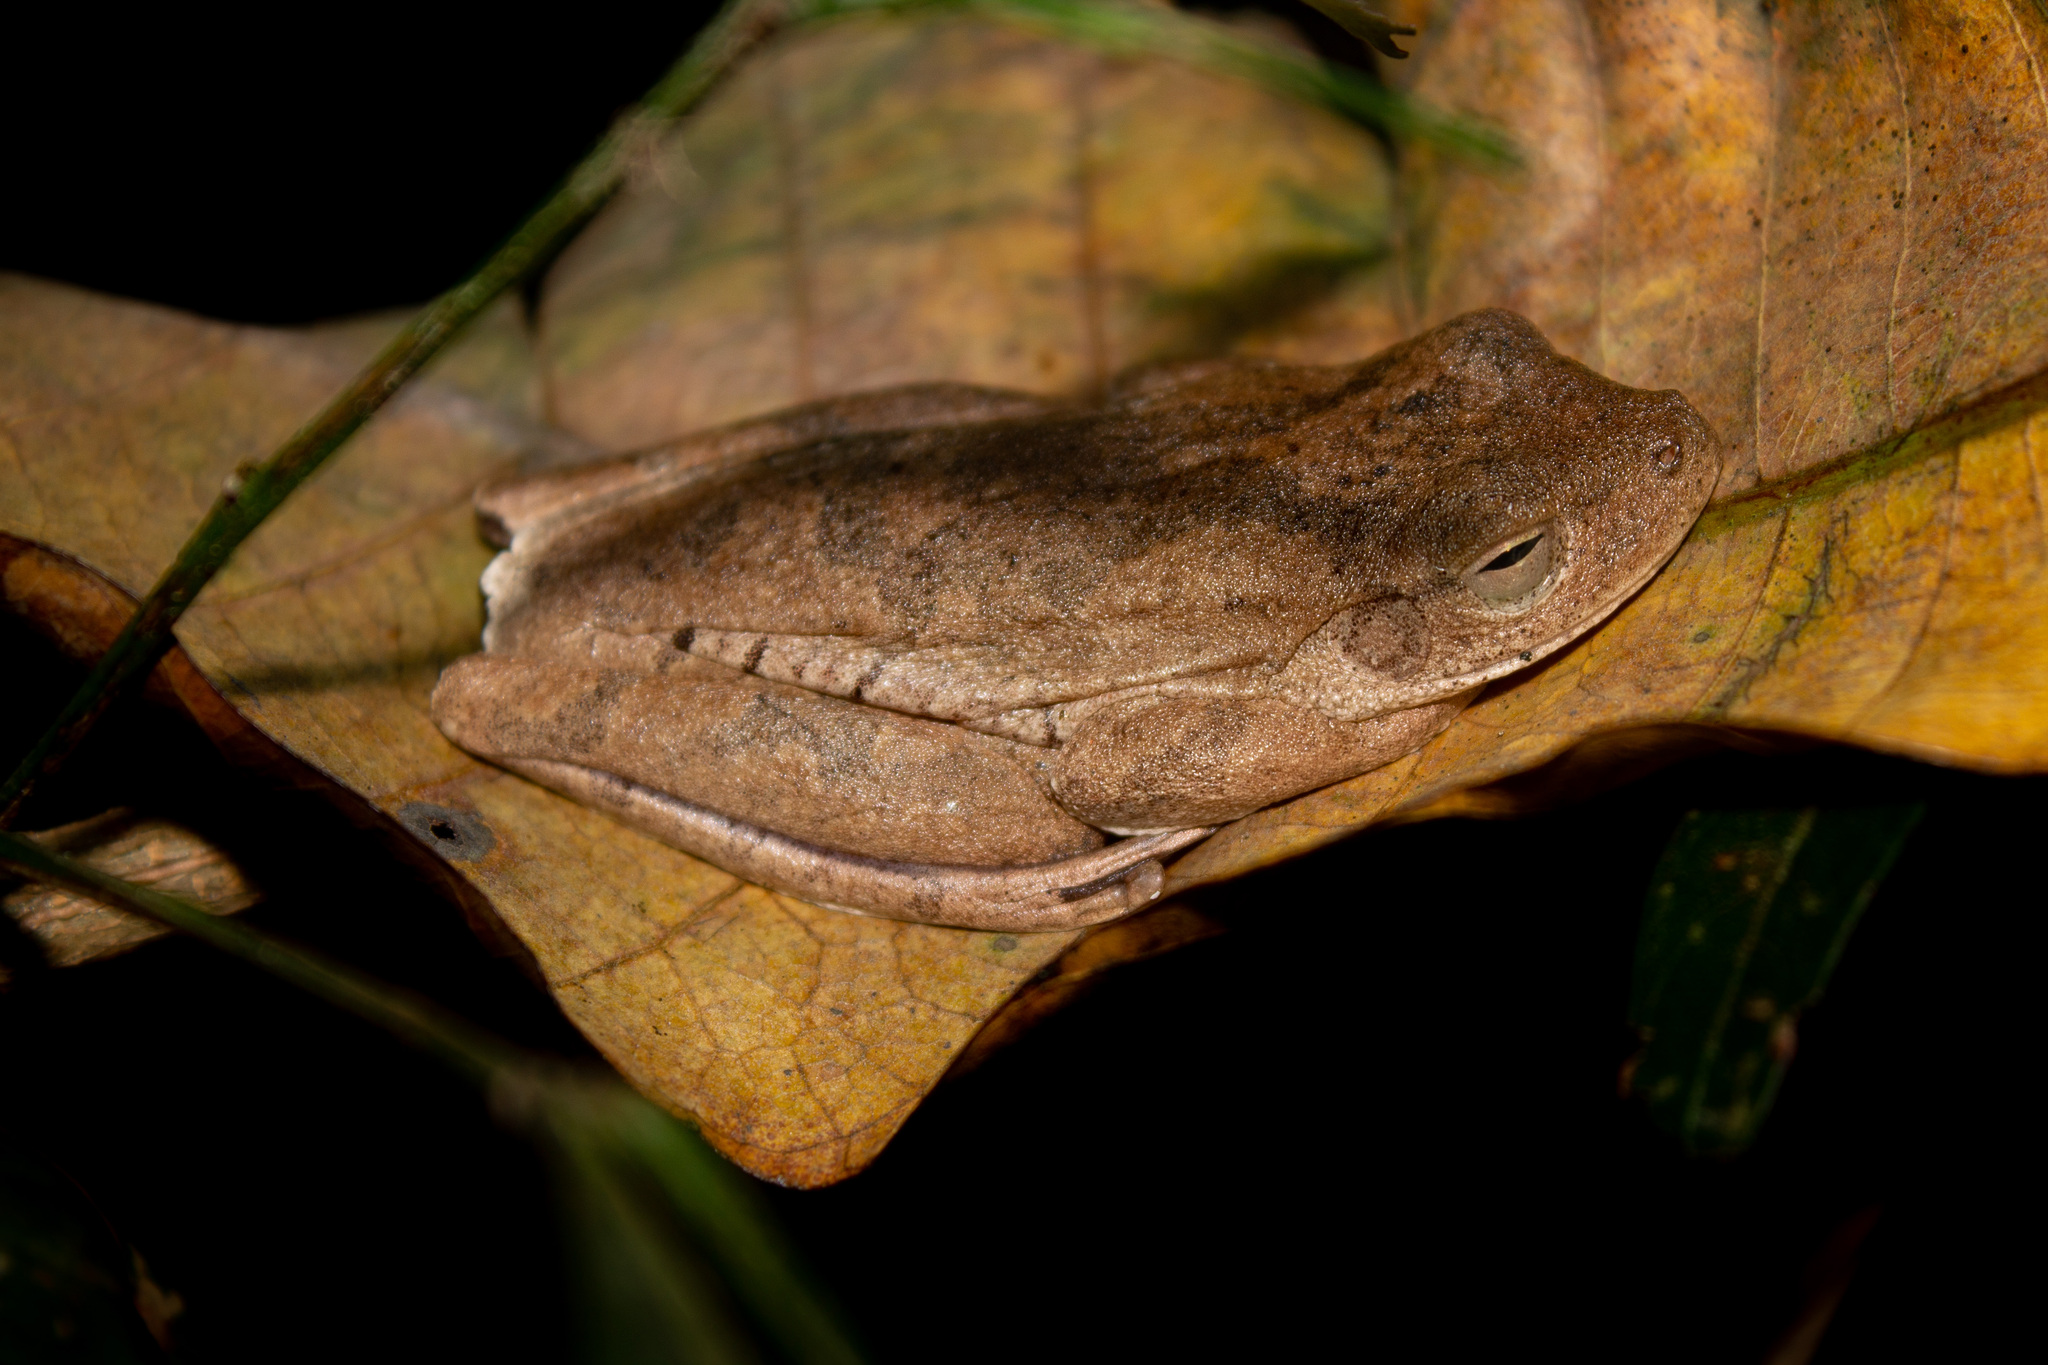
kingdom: Animalia
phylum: Chordata
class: Amphibia
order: Anura
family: Hylidae
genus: Boana
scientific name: Boana platanera
